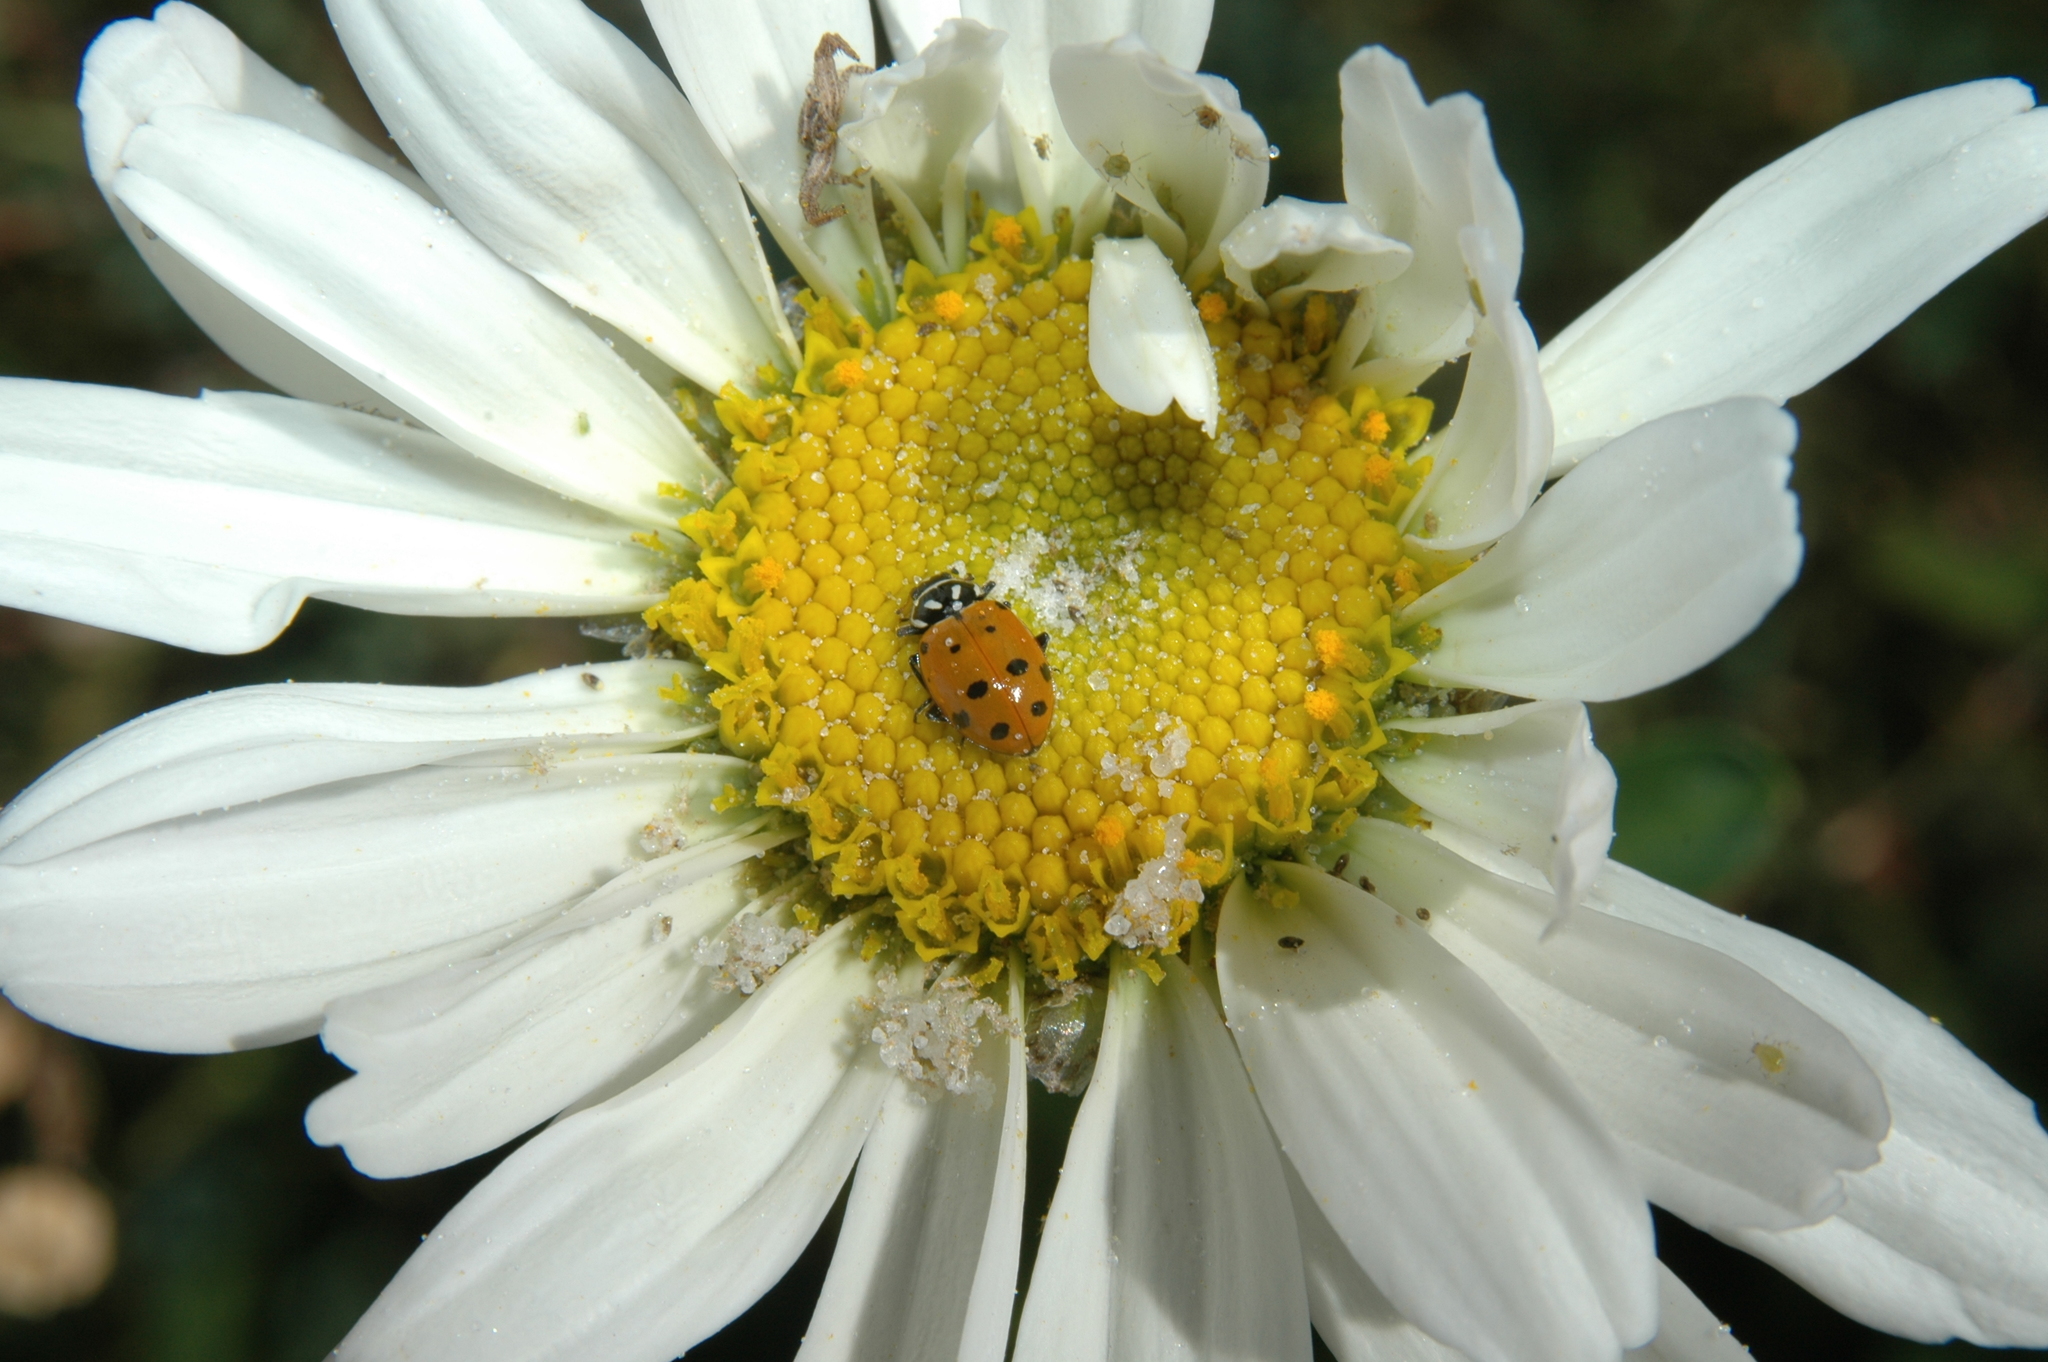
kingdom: Animalia
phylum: Arthropoda
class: Insecta
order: Coleoptera
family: Coccinellidae
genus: Hippodamia
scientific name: Hippodamia convergens
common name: Convergent lady beetle
